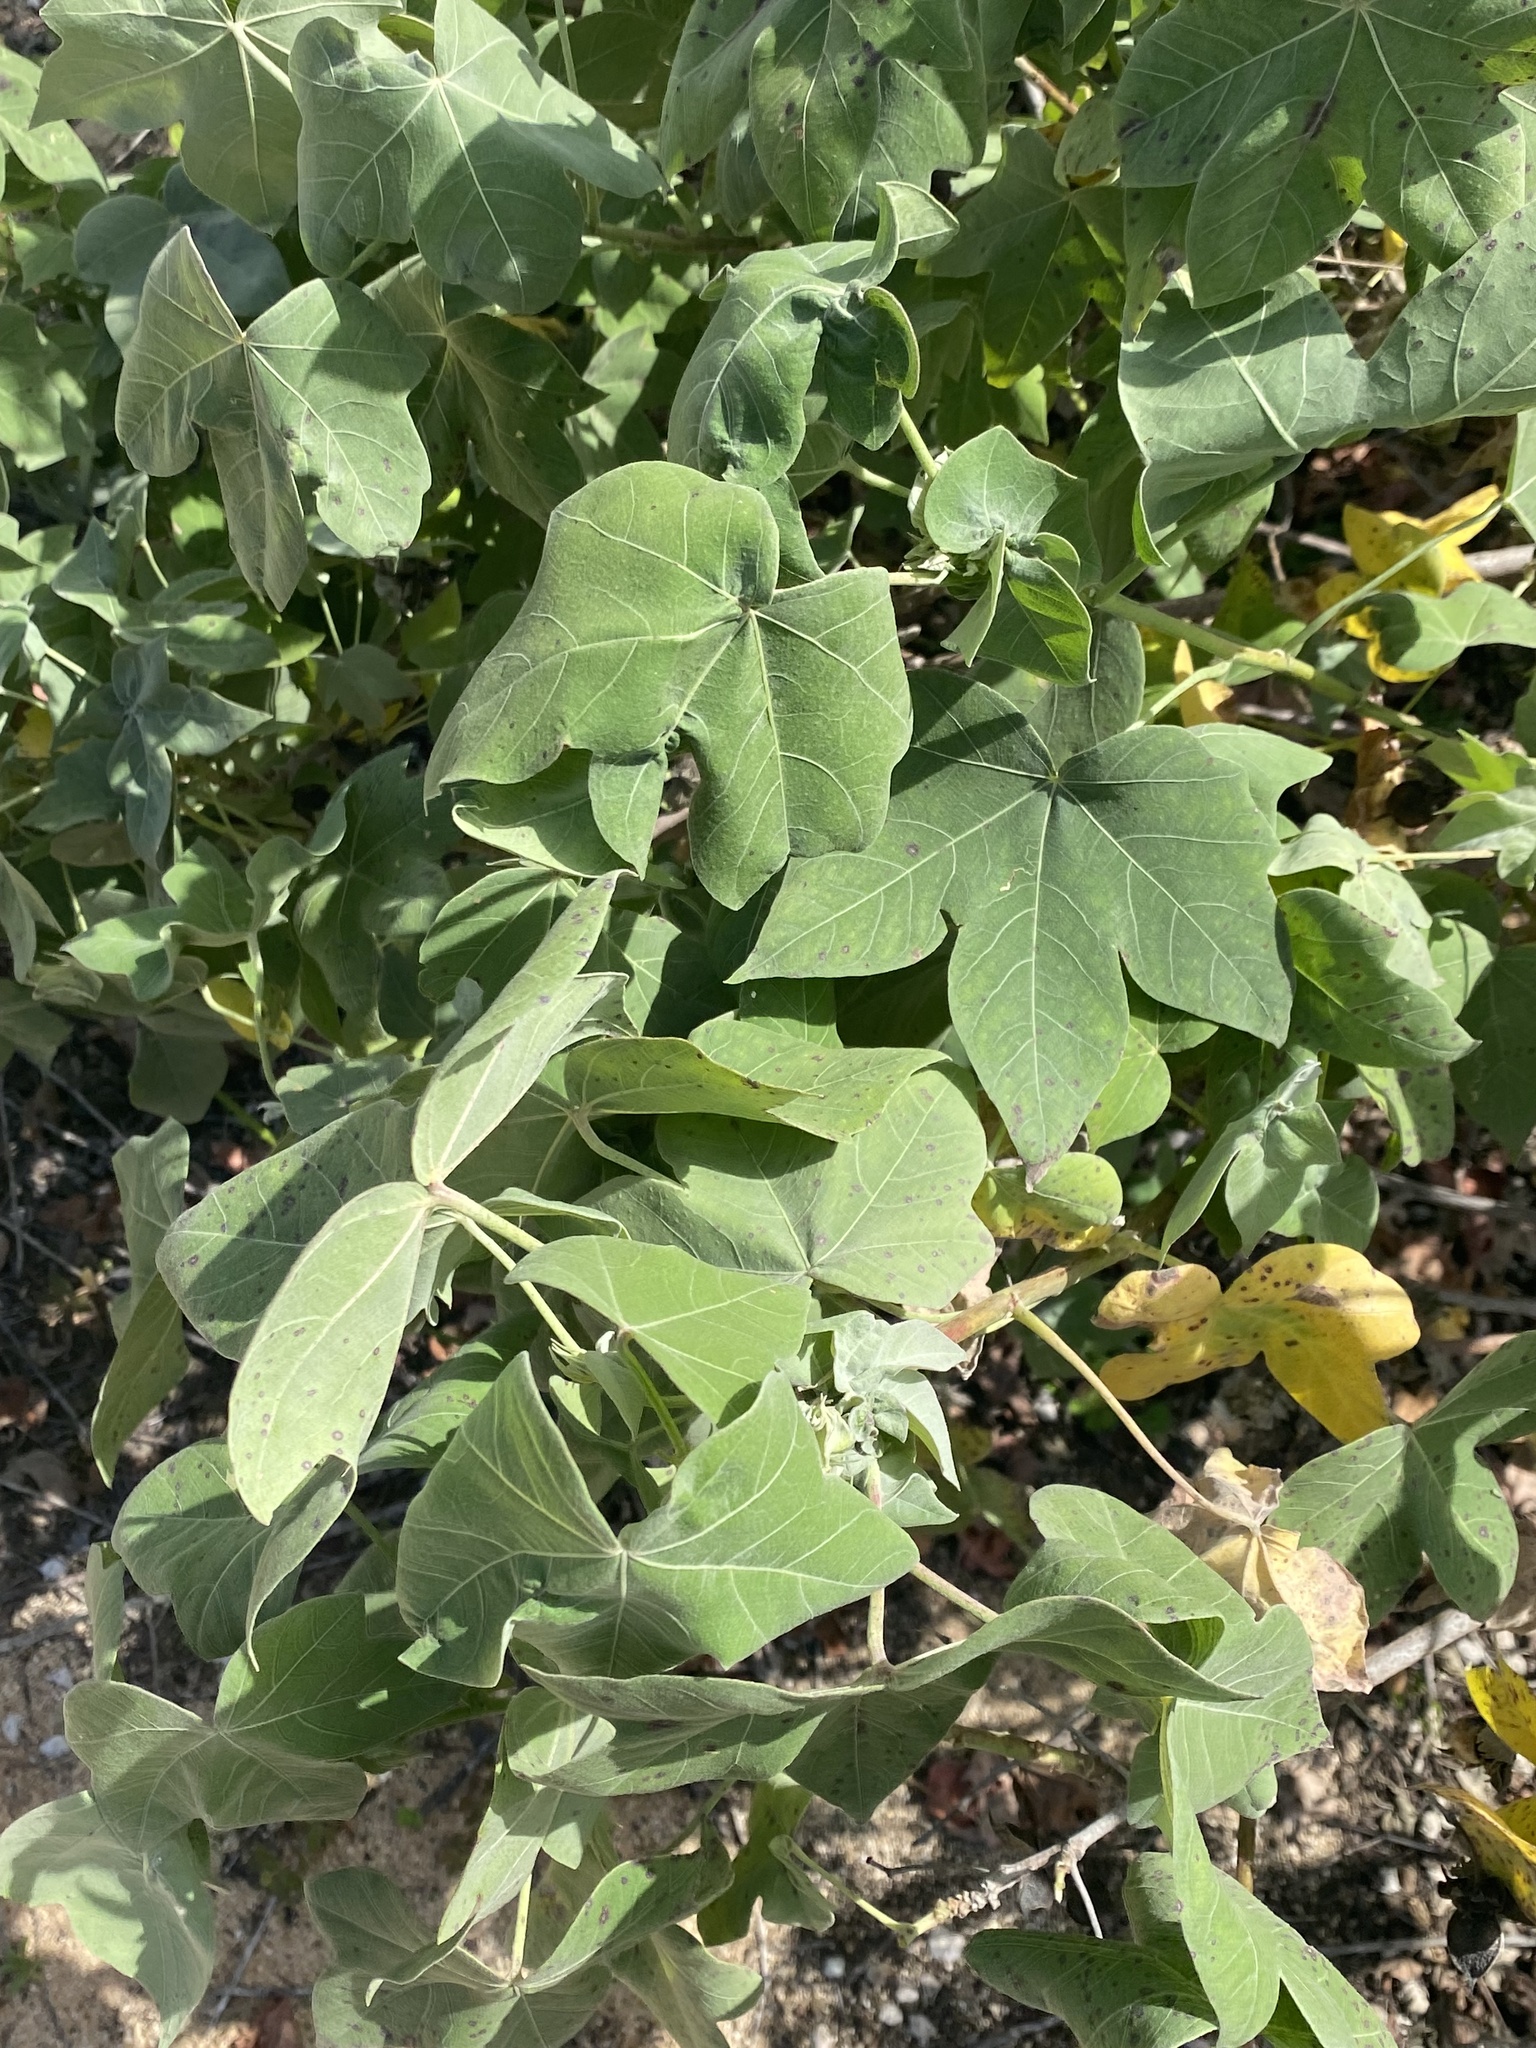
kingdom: Plantae
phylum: Tracheophyta
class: Magnoliopsida
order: Malvales
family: Malvaceae
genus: Gossypium
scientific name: Gossypium tomentosum
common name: Hawaiian cotton
